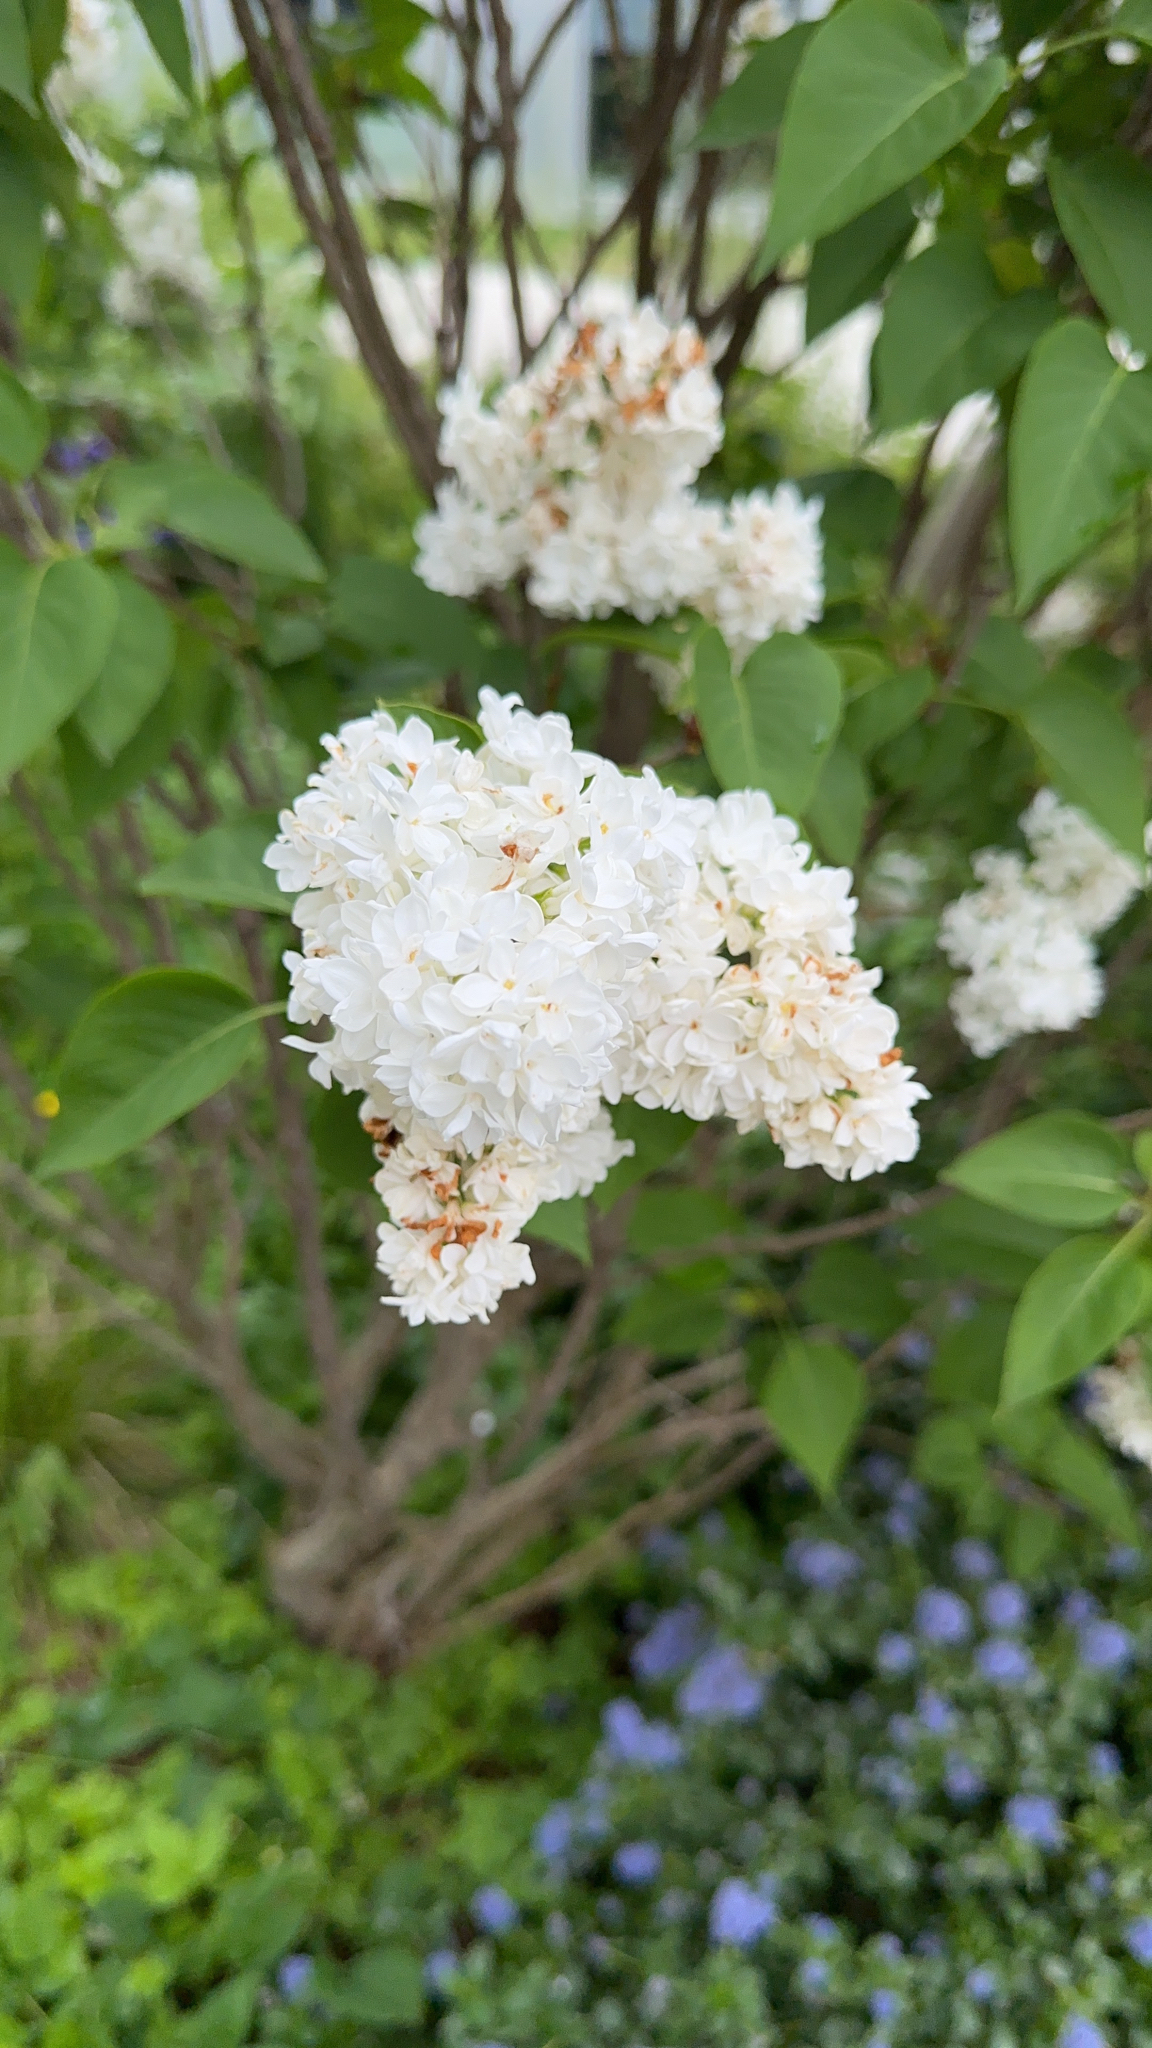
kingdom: Plantae
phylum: Tracheophyta
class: Magnoliopsida
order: Lamiales
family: Oleaceae
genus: Syringa
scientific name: Syringa vulgaris
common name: Common lilac
